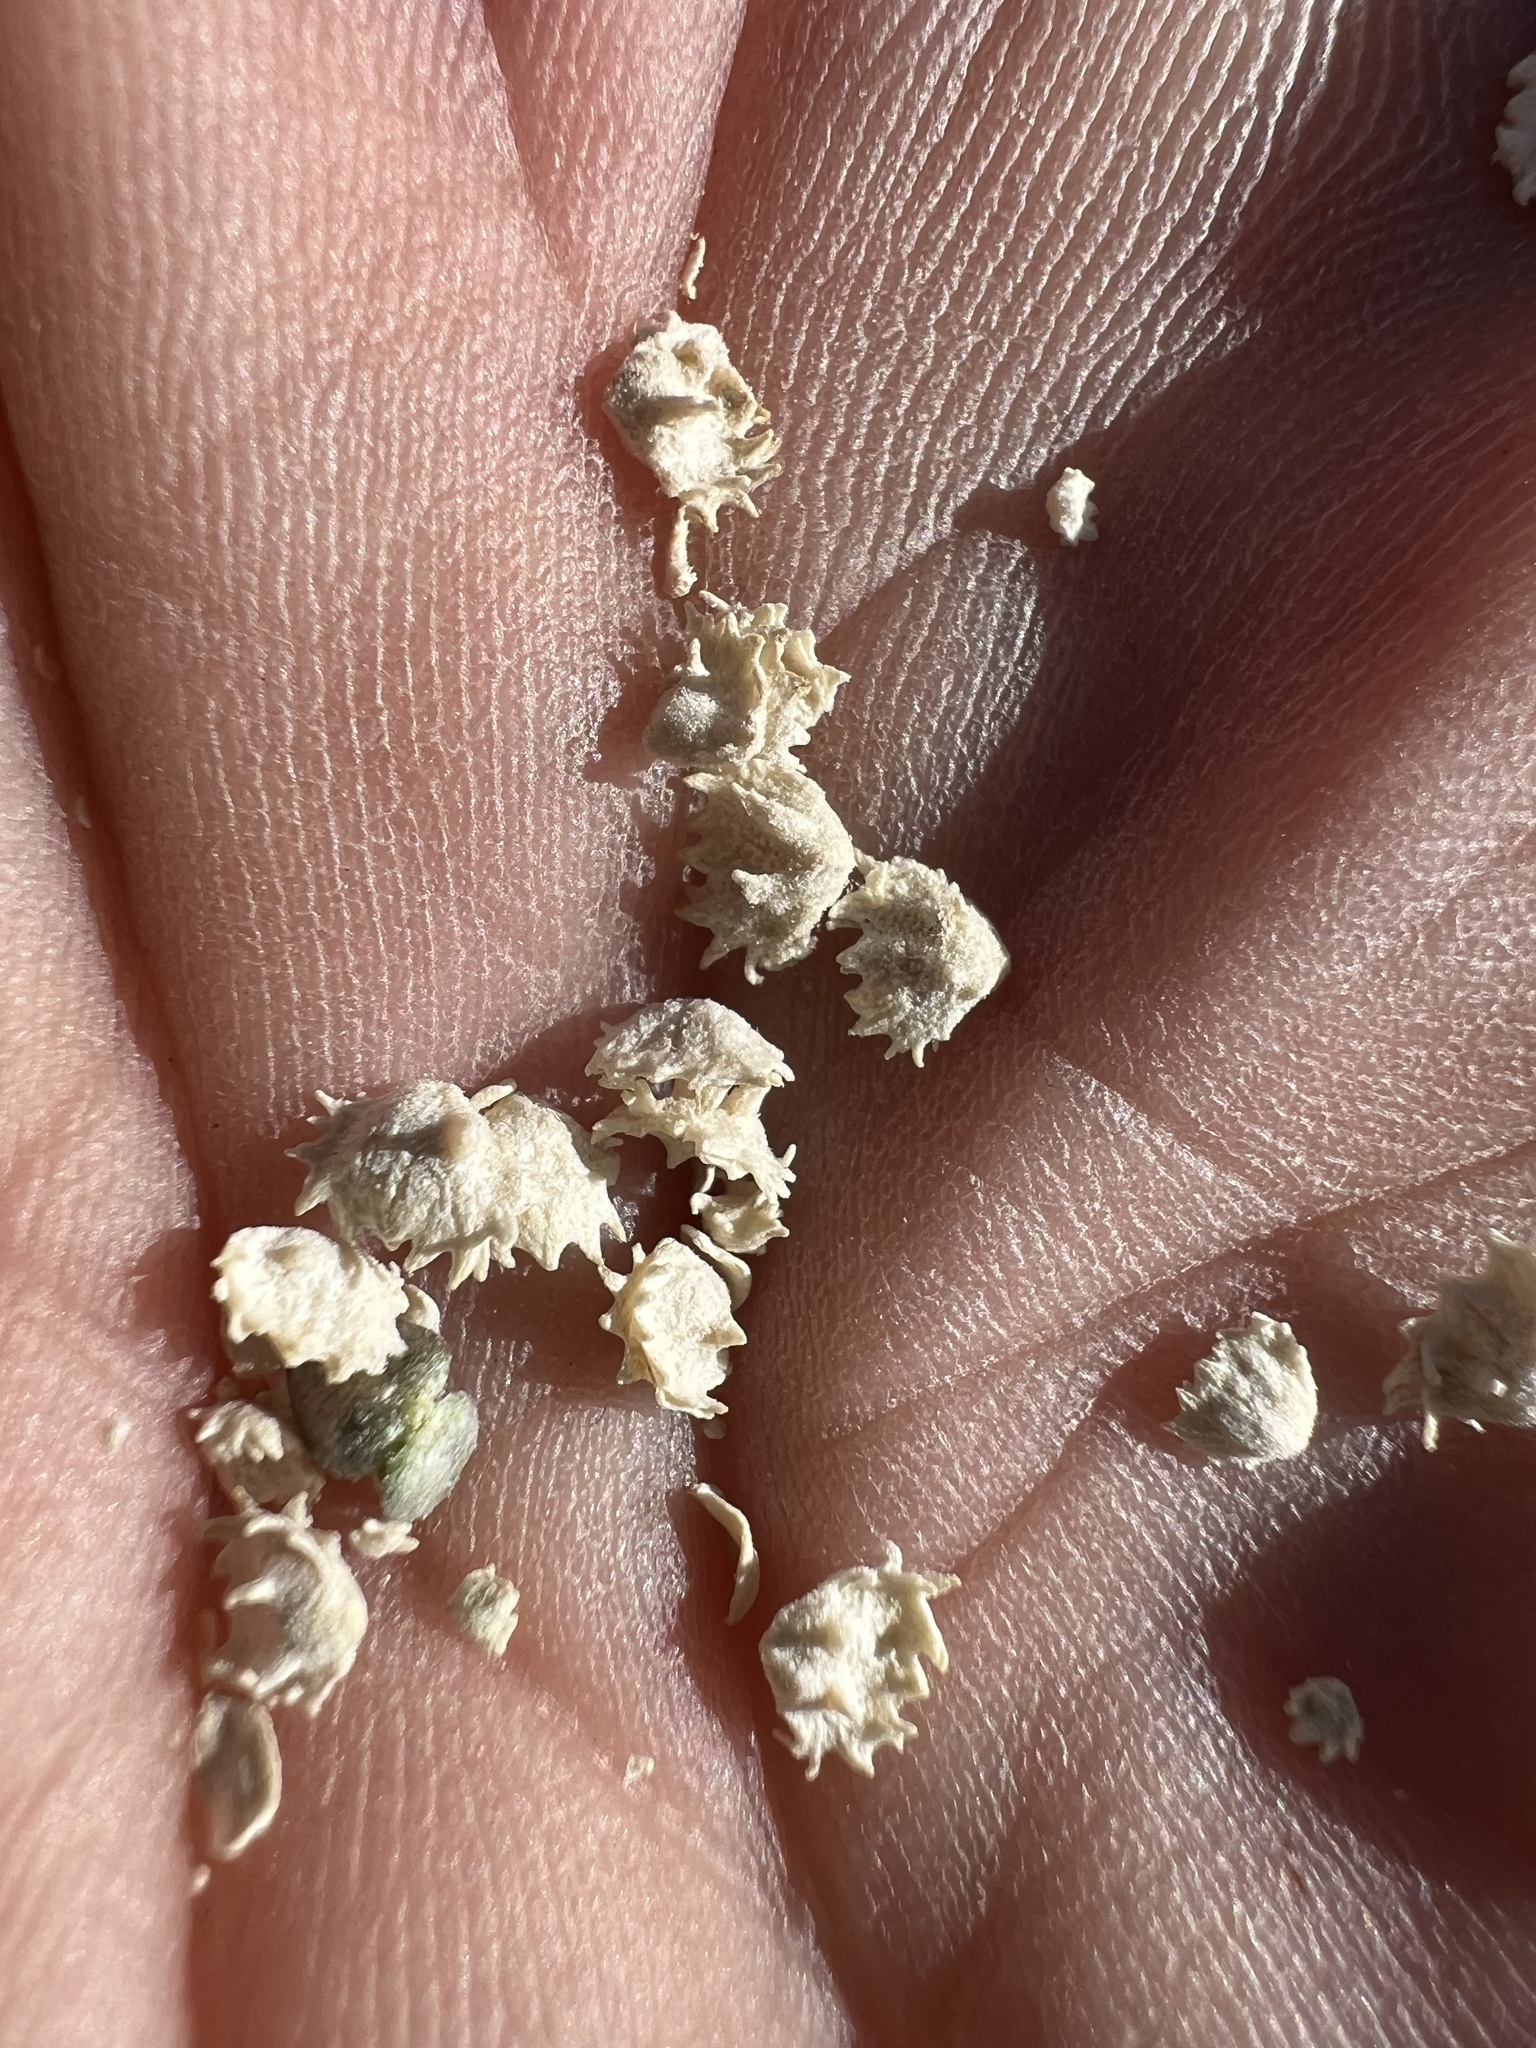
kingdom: Plantae
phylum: Tracheophyta
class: Magnoliopsida
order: Caryophyllales
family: Amaranthaceae
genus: Atriplex
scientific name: Atriplex polycarpa
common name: Desert saltbush
